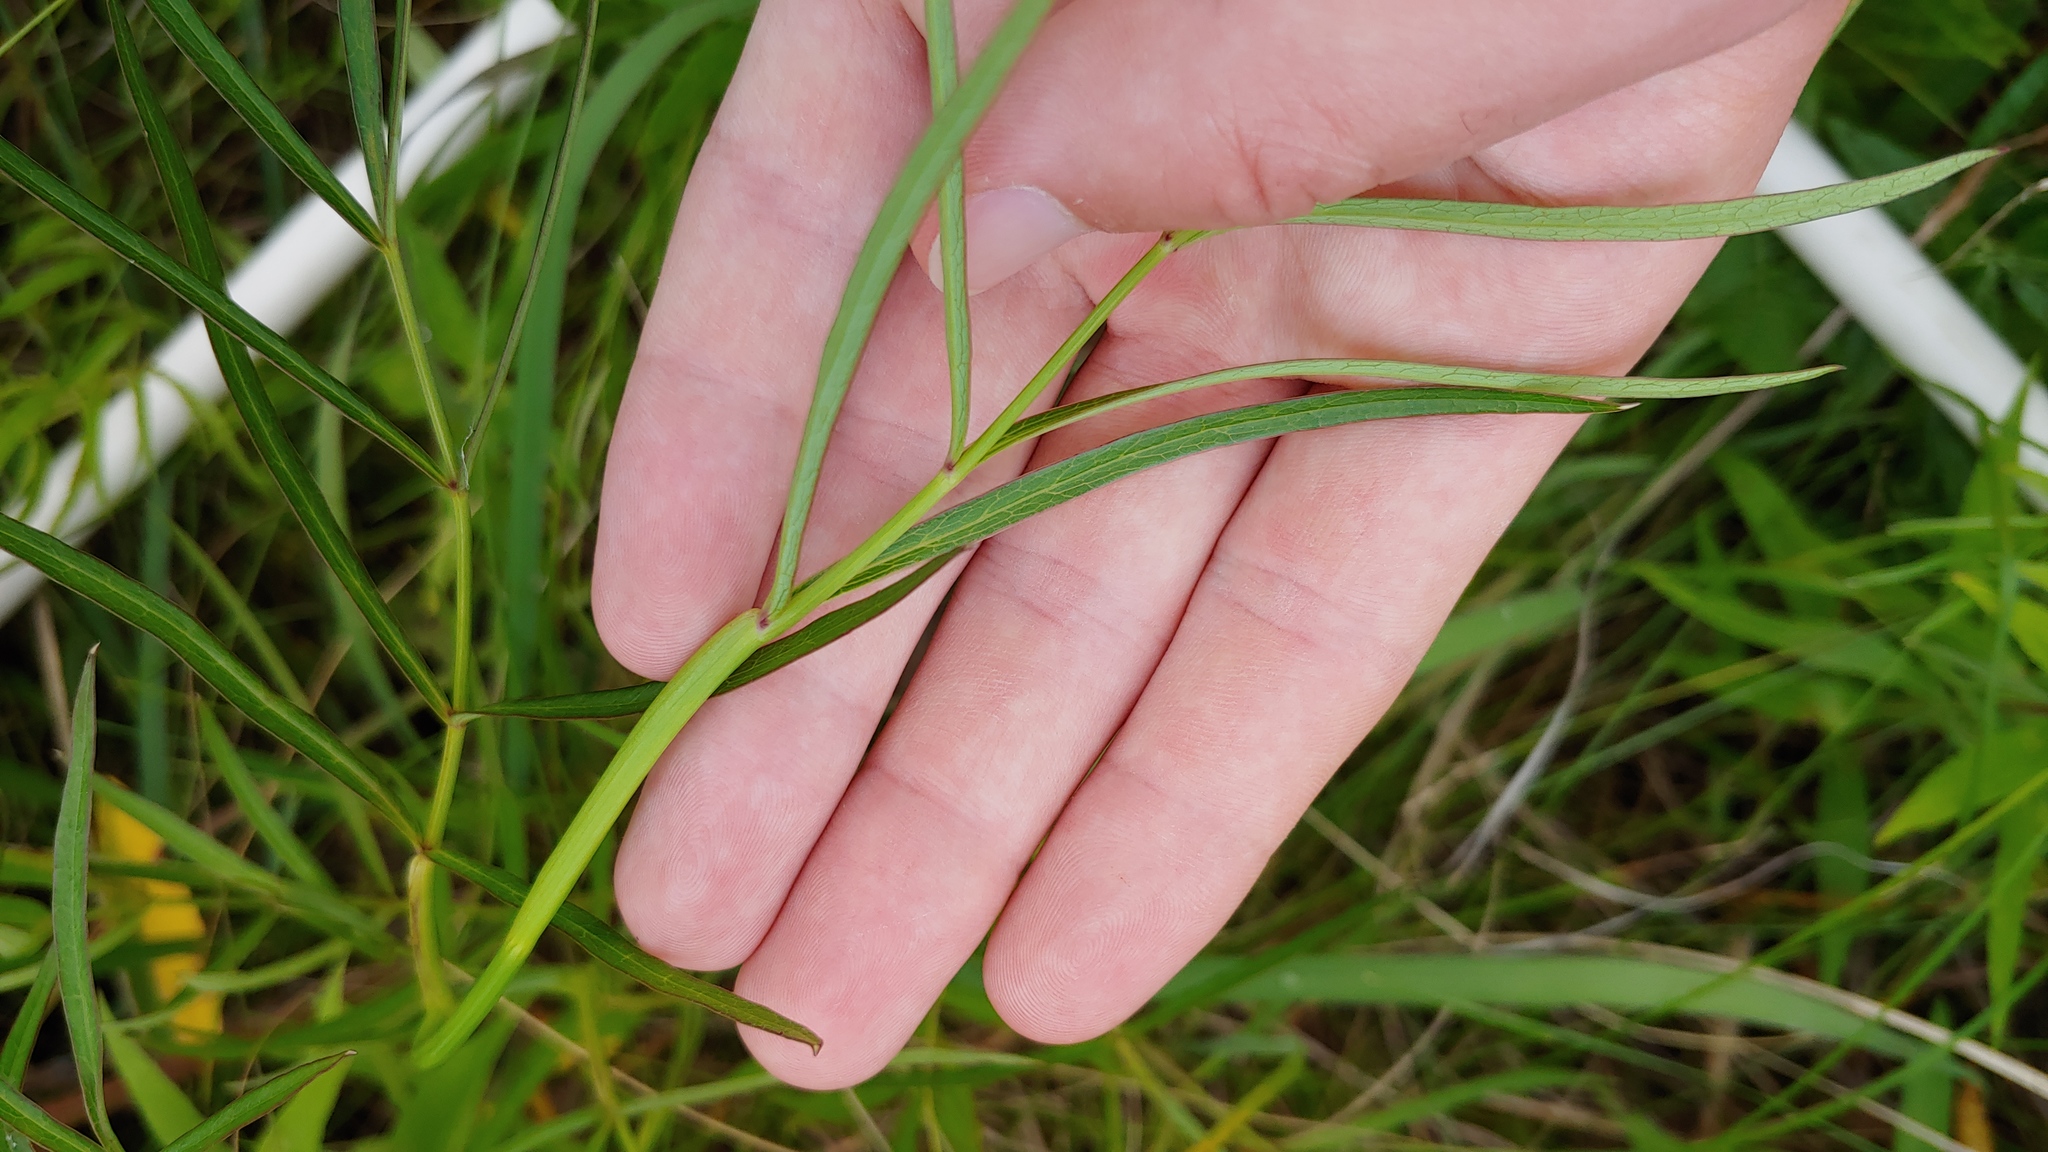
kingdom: Plantae
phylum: Tracheophyta
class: Magnoliopsida
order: Apiales
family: Apiaceae
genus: Oxypolis
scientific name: Oxypolis rigidior
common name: Cowbane
